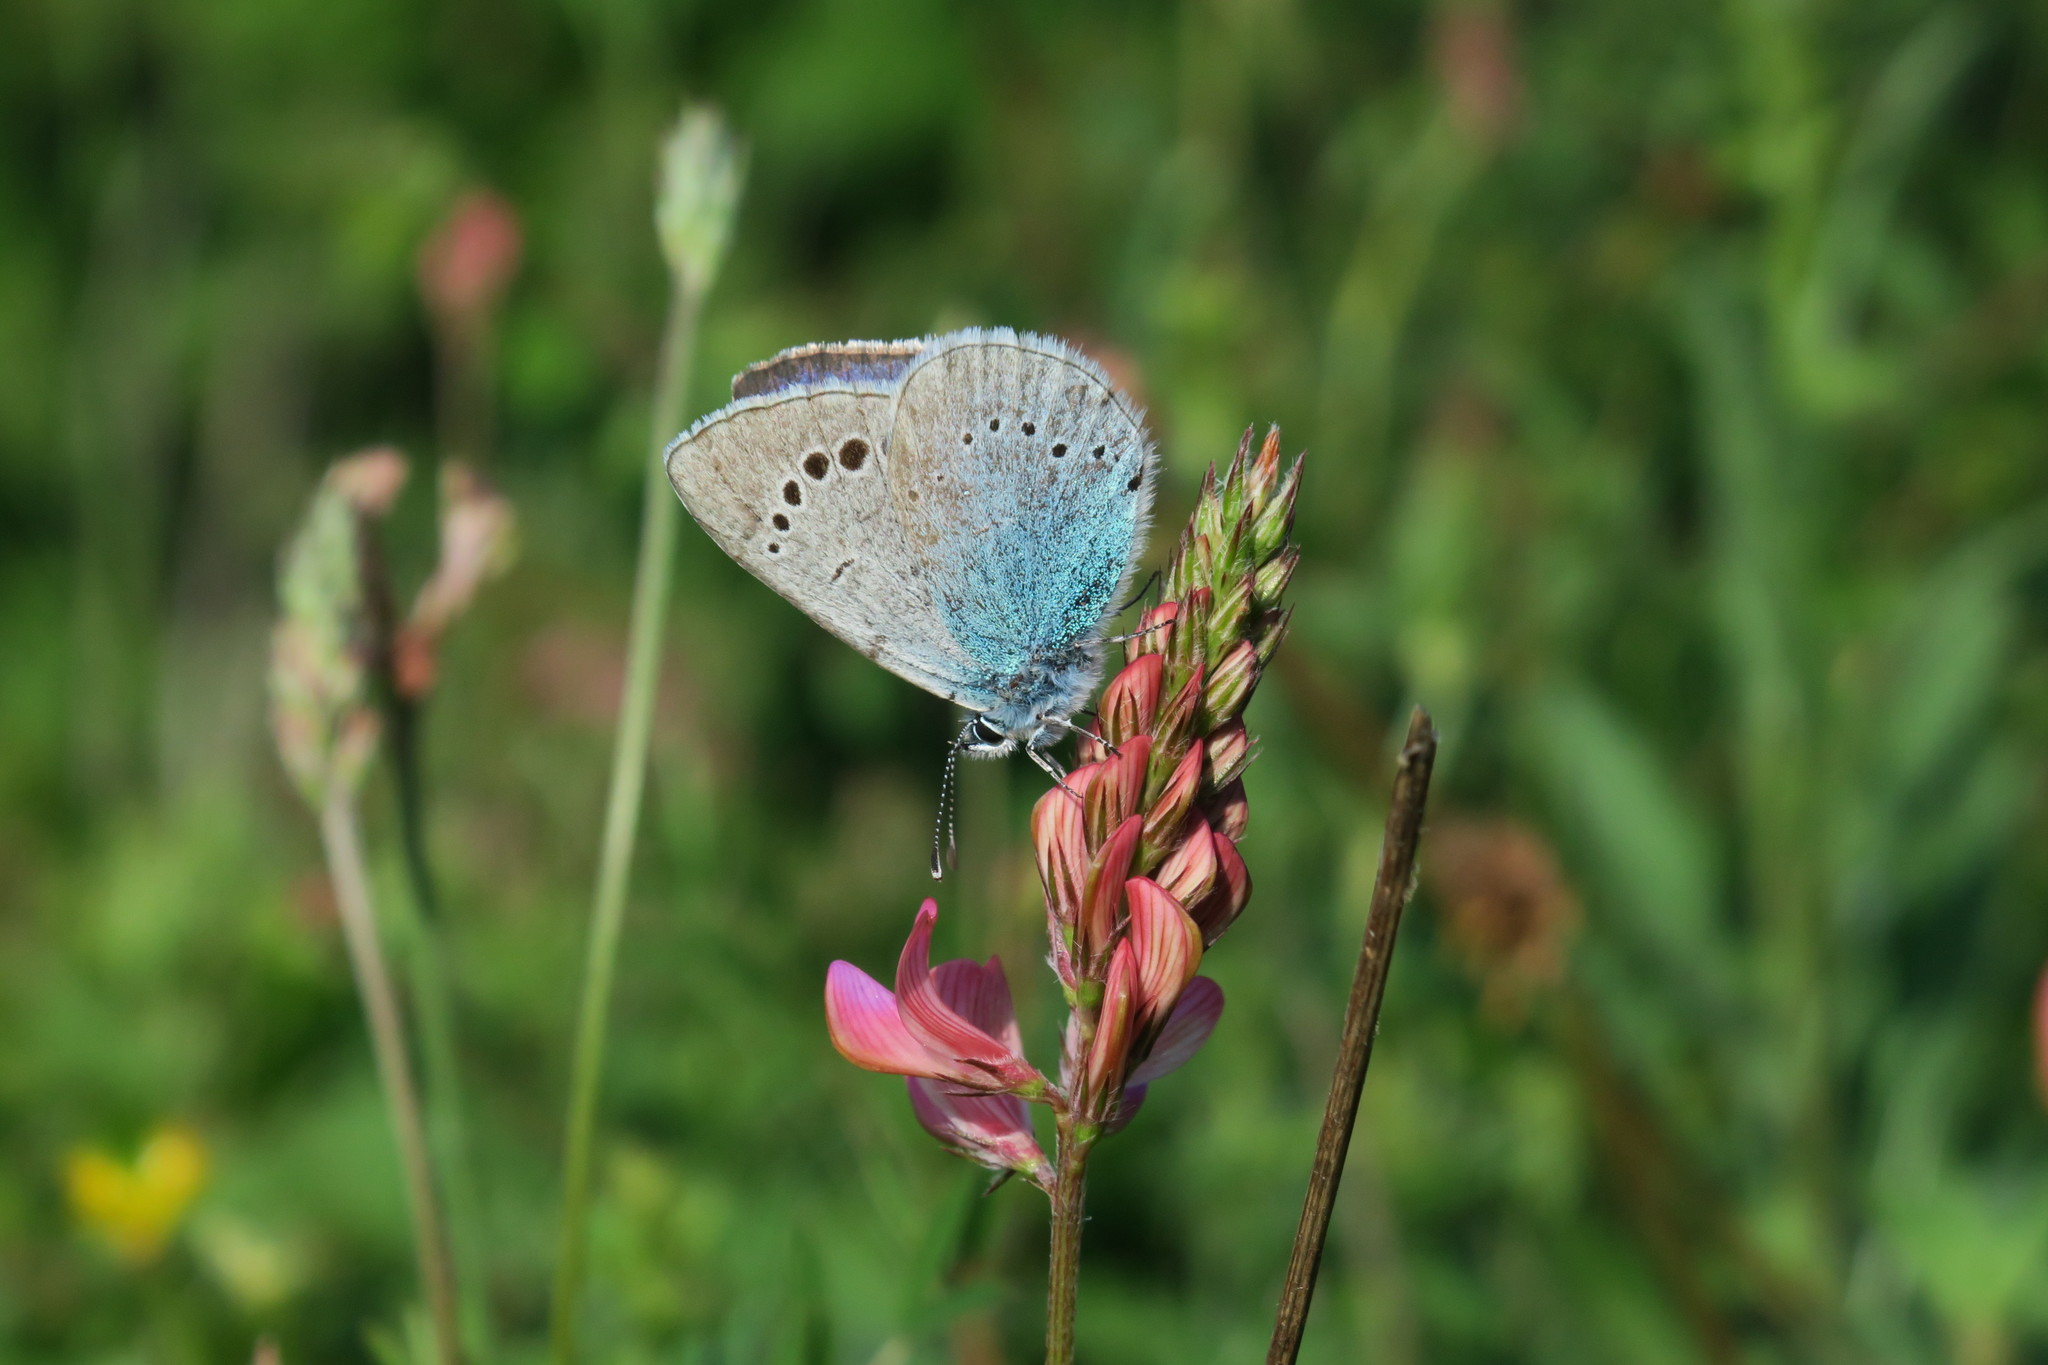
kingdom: Animalia
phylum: Arthropoda
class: Insecta
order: Lepidoptera
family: Lycaenidae
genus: Glaucopsyche
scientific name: Glaucopsyche alexis
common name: Green-underside blue
